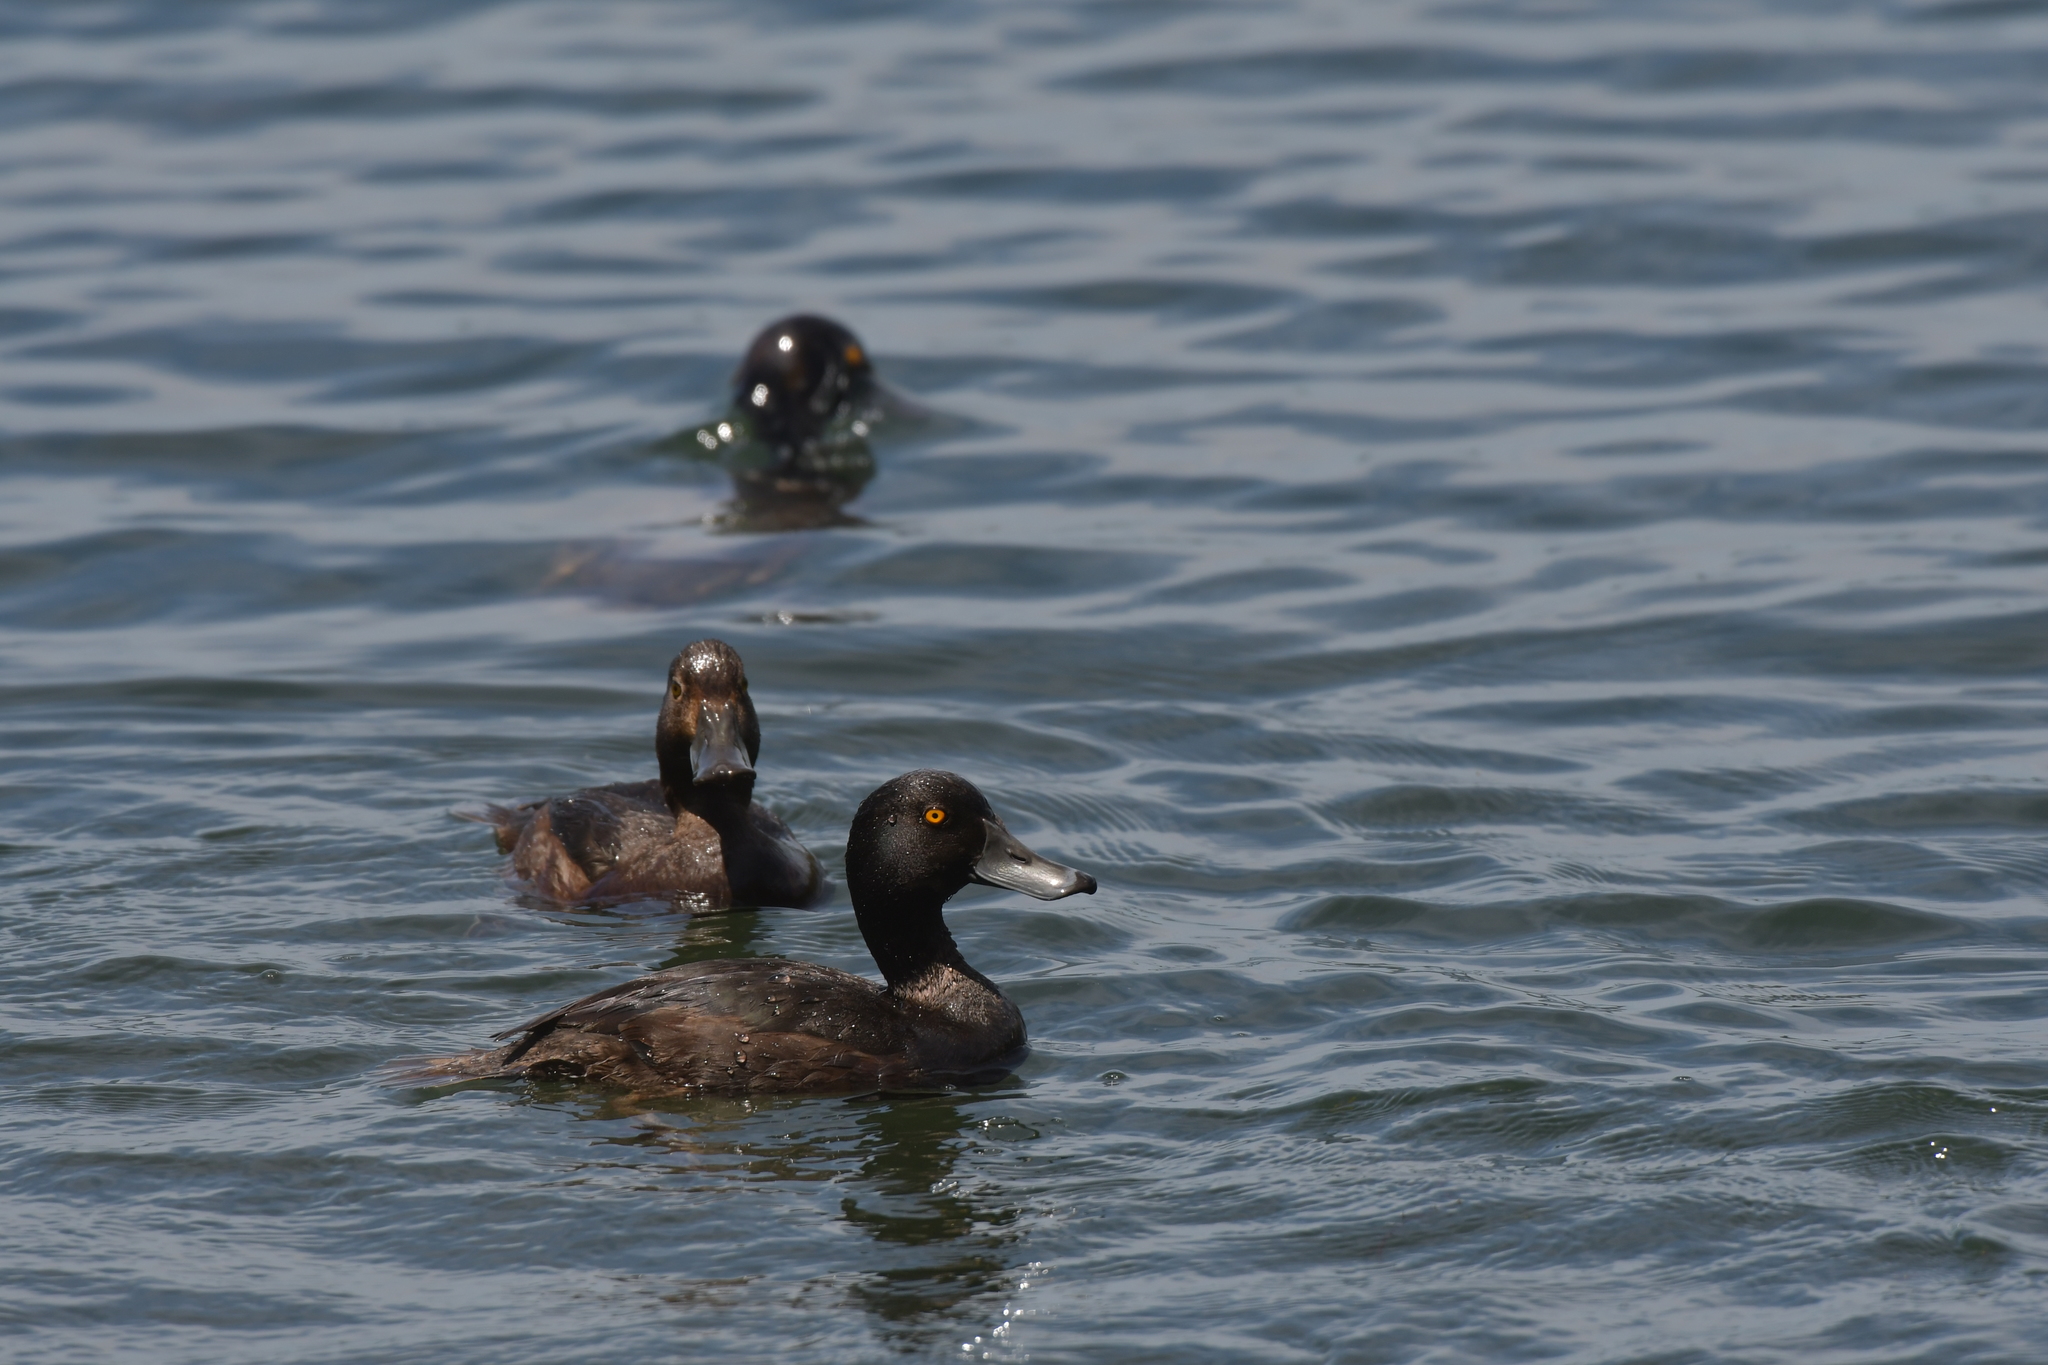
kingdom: Animalia
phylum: Chordata
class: Aves
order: Anseriformes
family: Anatidae
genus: Aythya
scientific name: Aythya novaeseelandiae
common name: New zealand scaup
